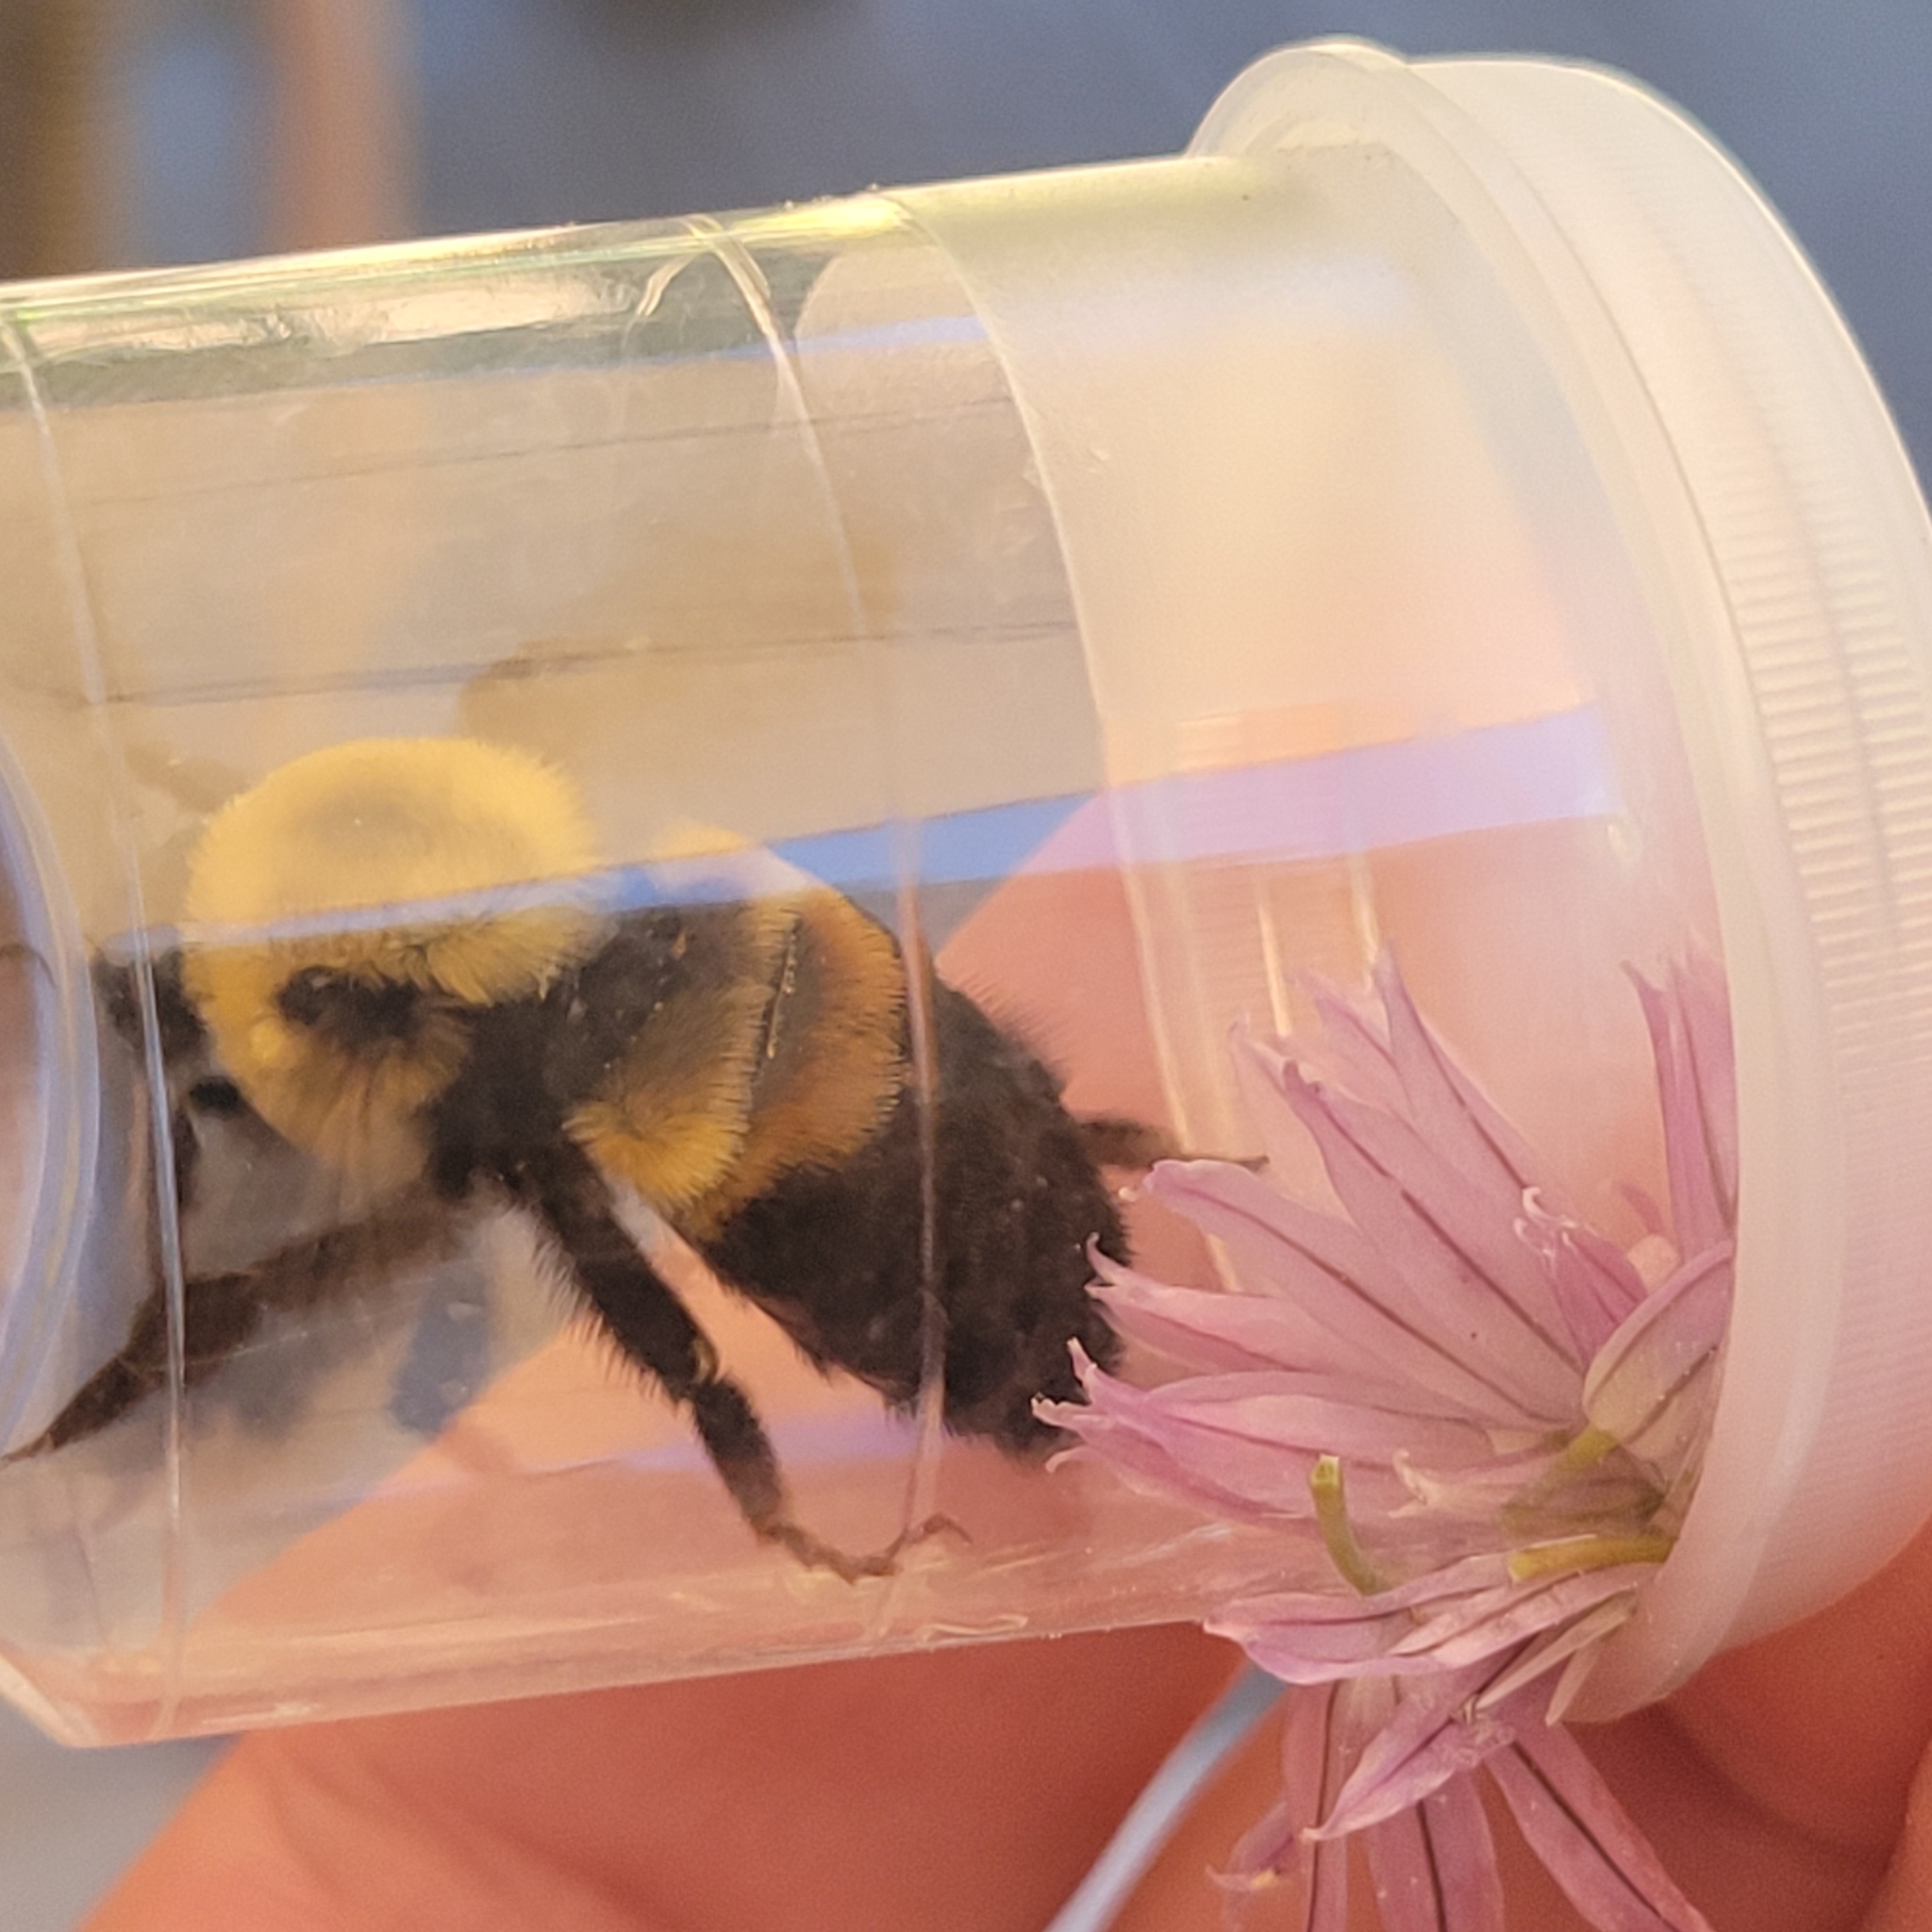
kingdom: Animalia
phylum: Arthropoda
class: Insecta
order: Hymenoptera
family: Apidae
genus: Bombus
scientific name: Bombus griseocollis
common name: Brown-belted bumble bee
